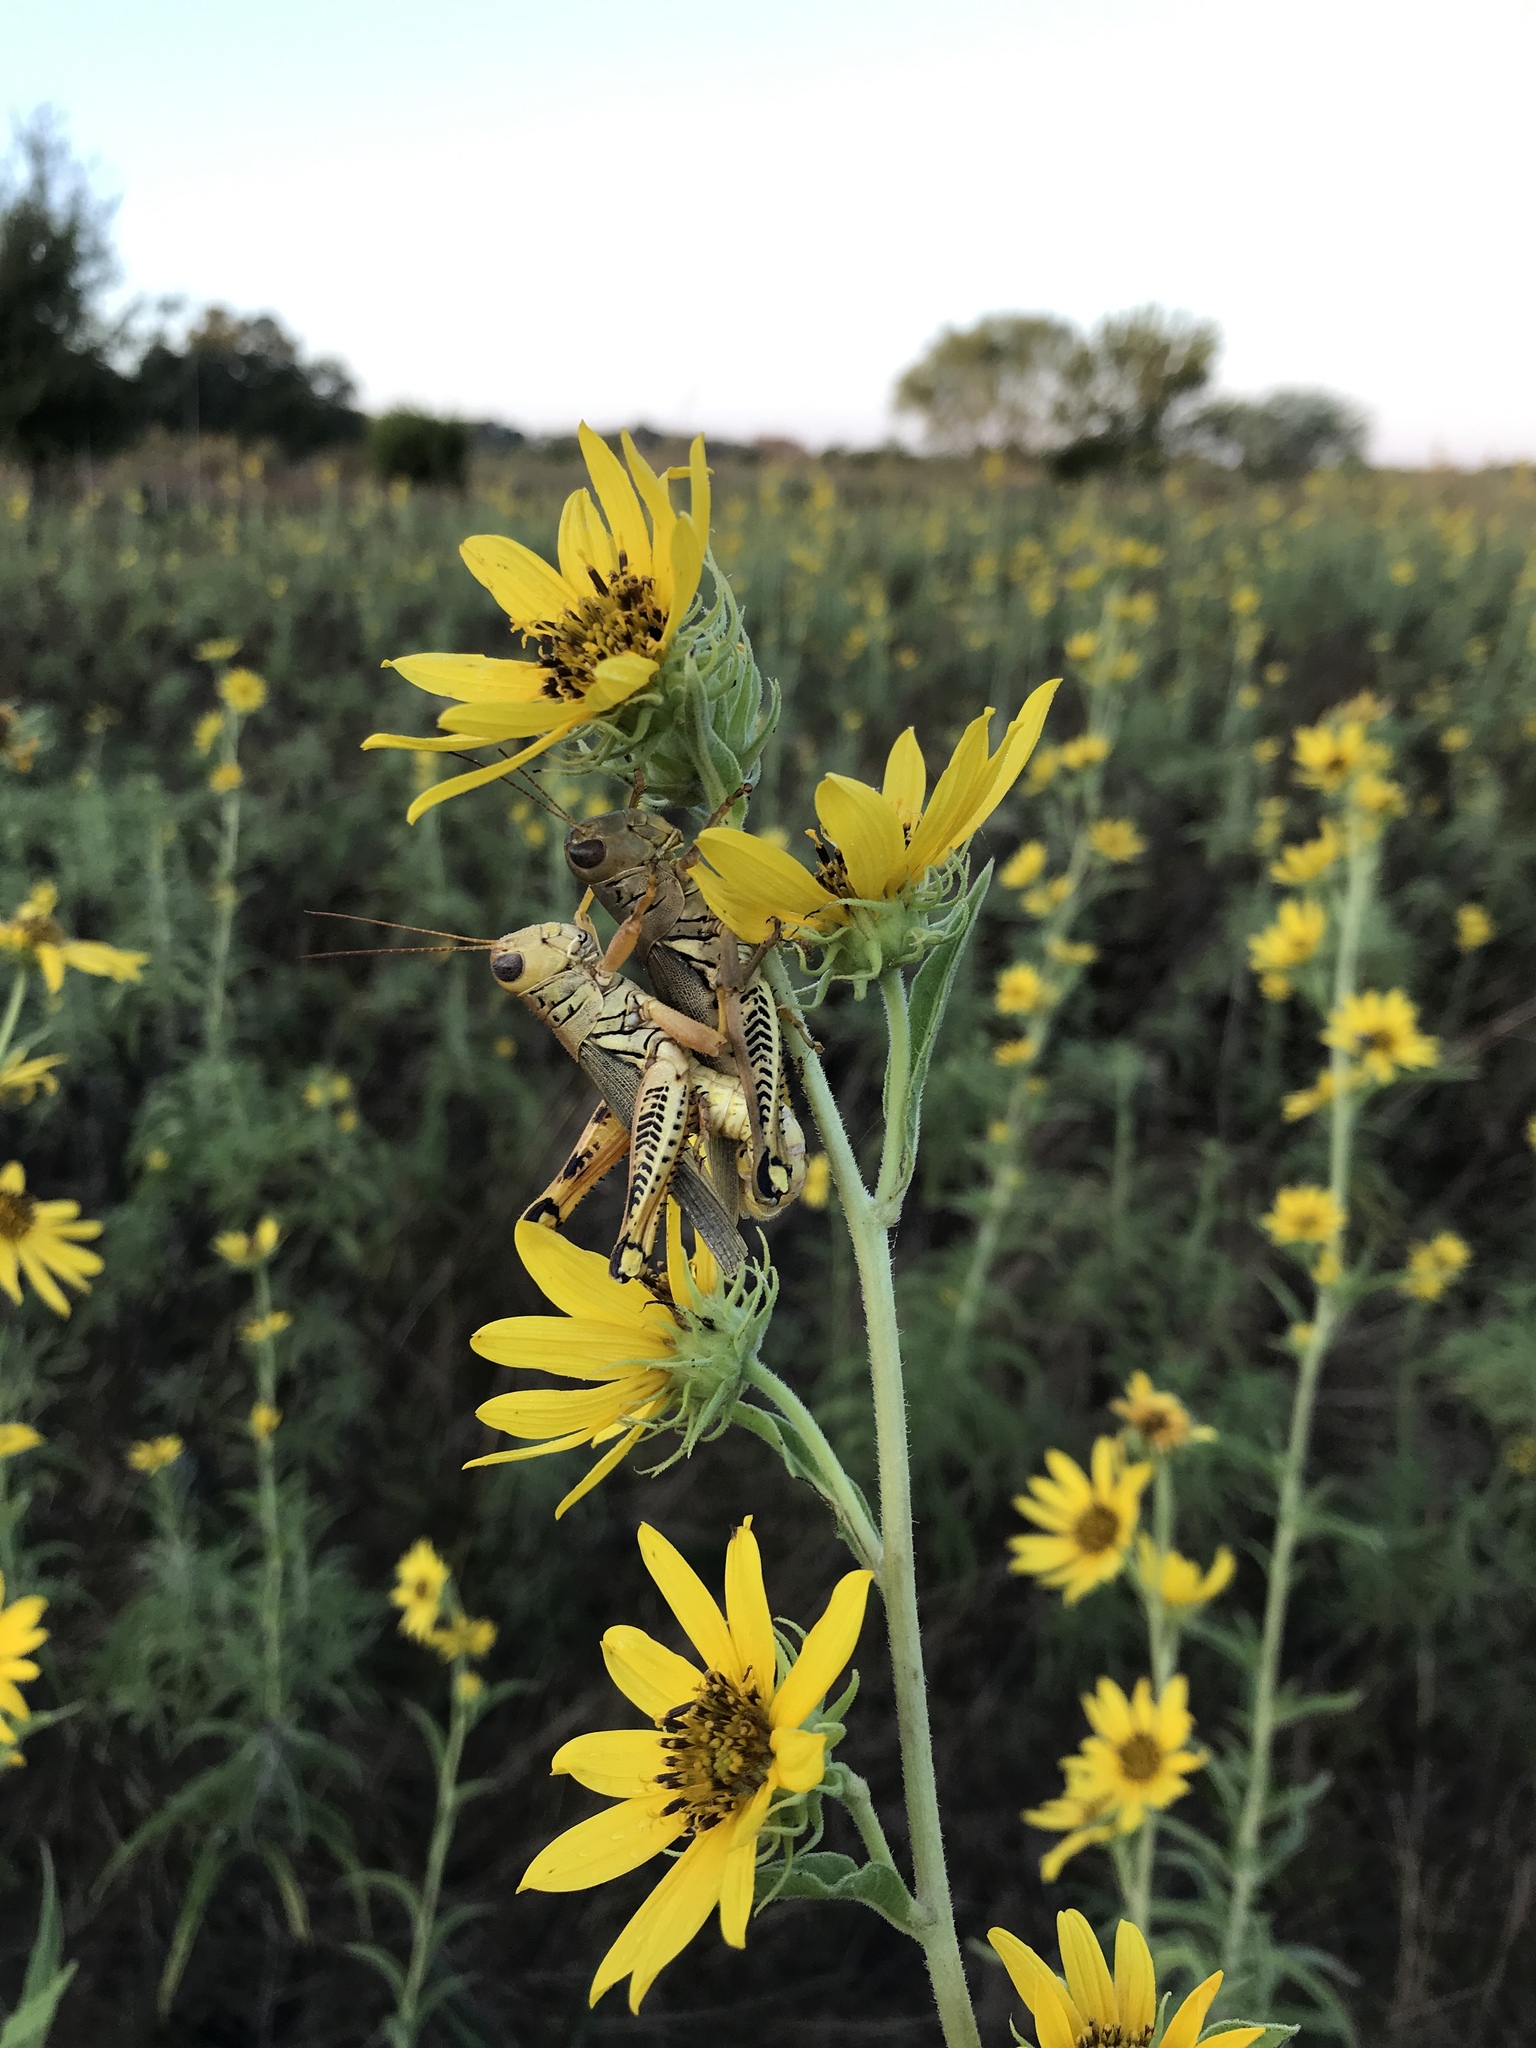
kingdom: Animalia
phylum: Arthropoda
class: Insecta
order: Orthoptera
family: Acrididae
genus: Melanoplus
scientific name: Melanoplus differentialis
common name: Differential grasshopper
